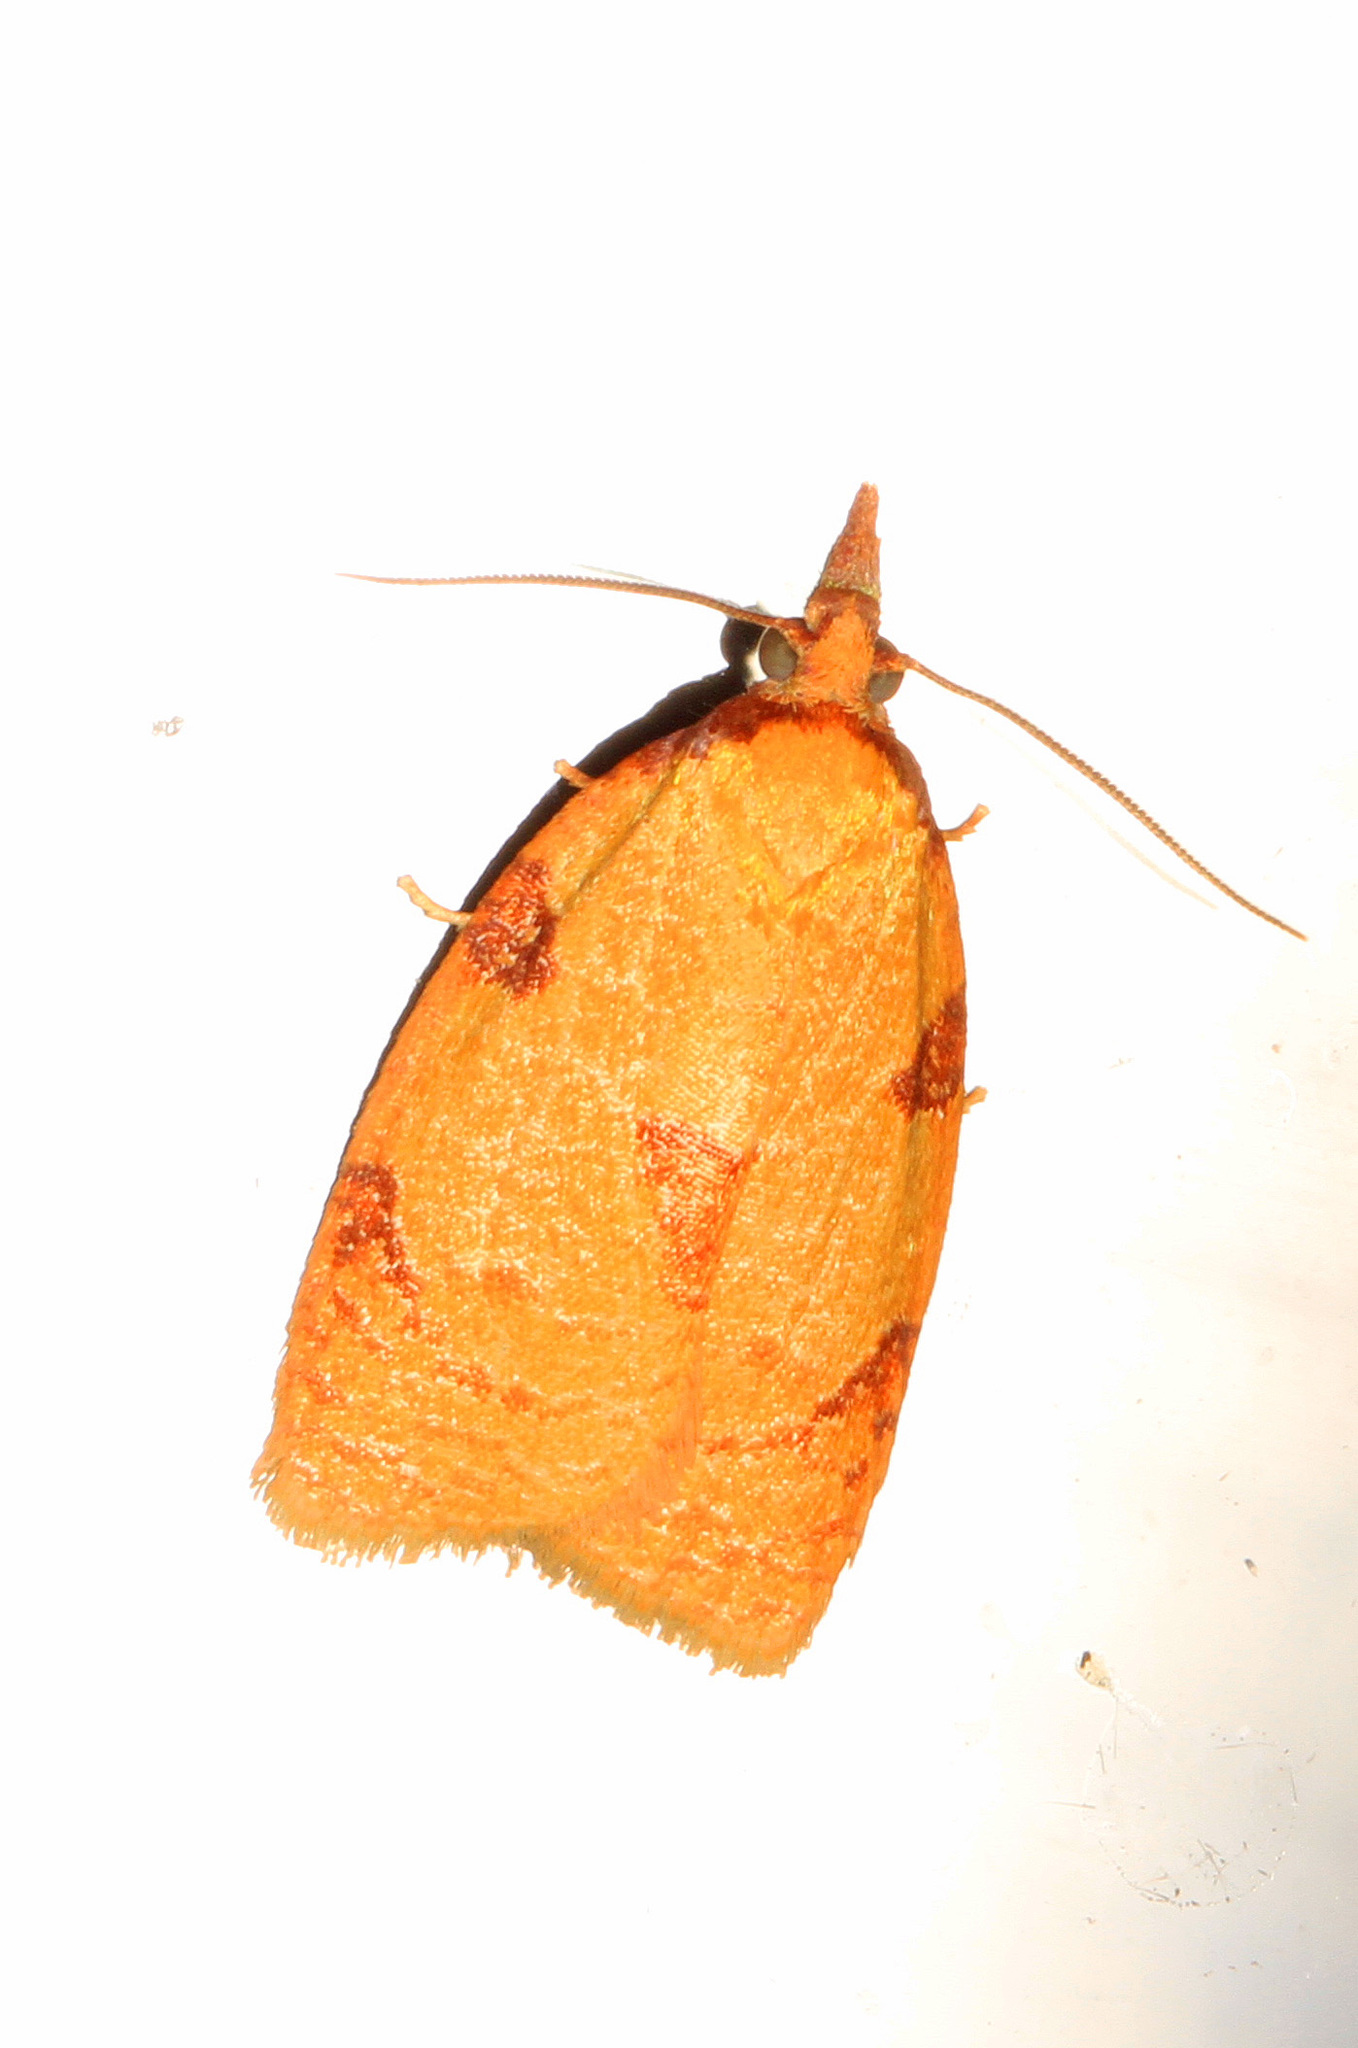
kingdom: Animalia
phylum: Arthropoda
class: Insecta
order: Lepidoptera
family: Tortricidae
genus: Cenopis
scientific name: Cenopis directana
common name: Chokecherry leafroller moth
